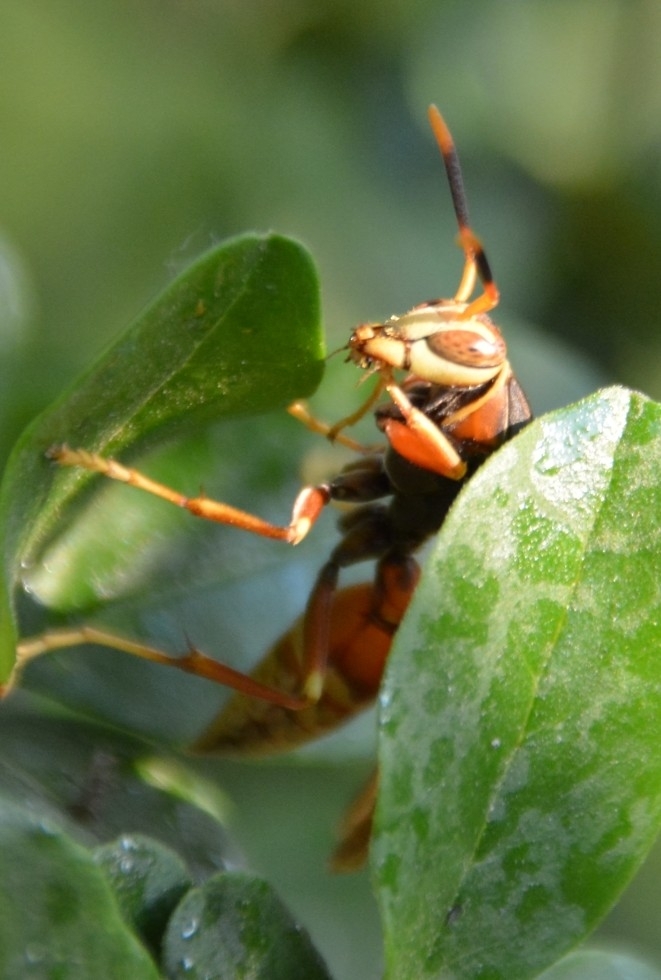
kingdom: Animalia
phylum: Arthropoda
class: Insecta
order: Hymenoptera
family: Eumenidae
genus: Polistes
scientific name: Polistes cavapyta
